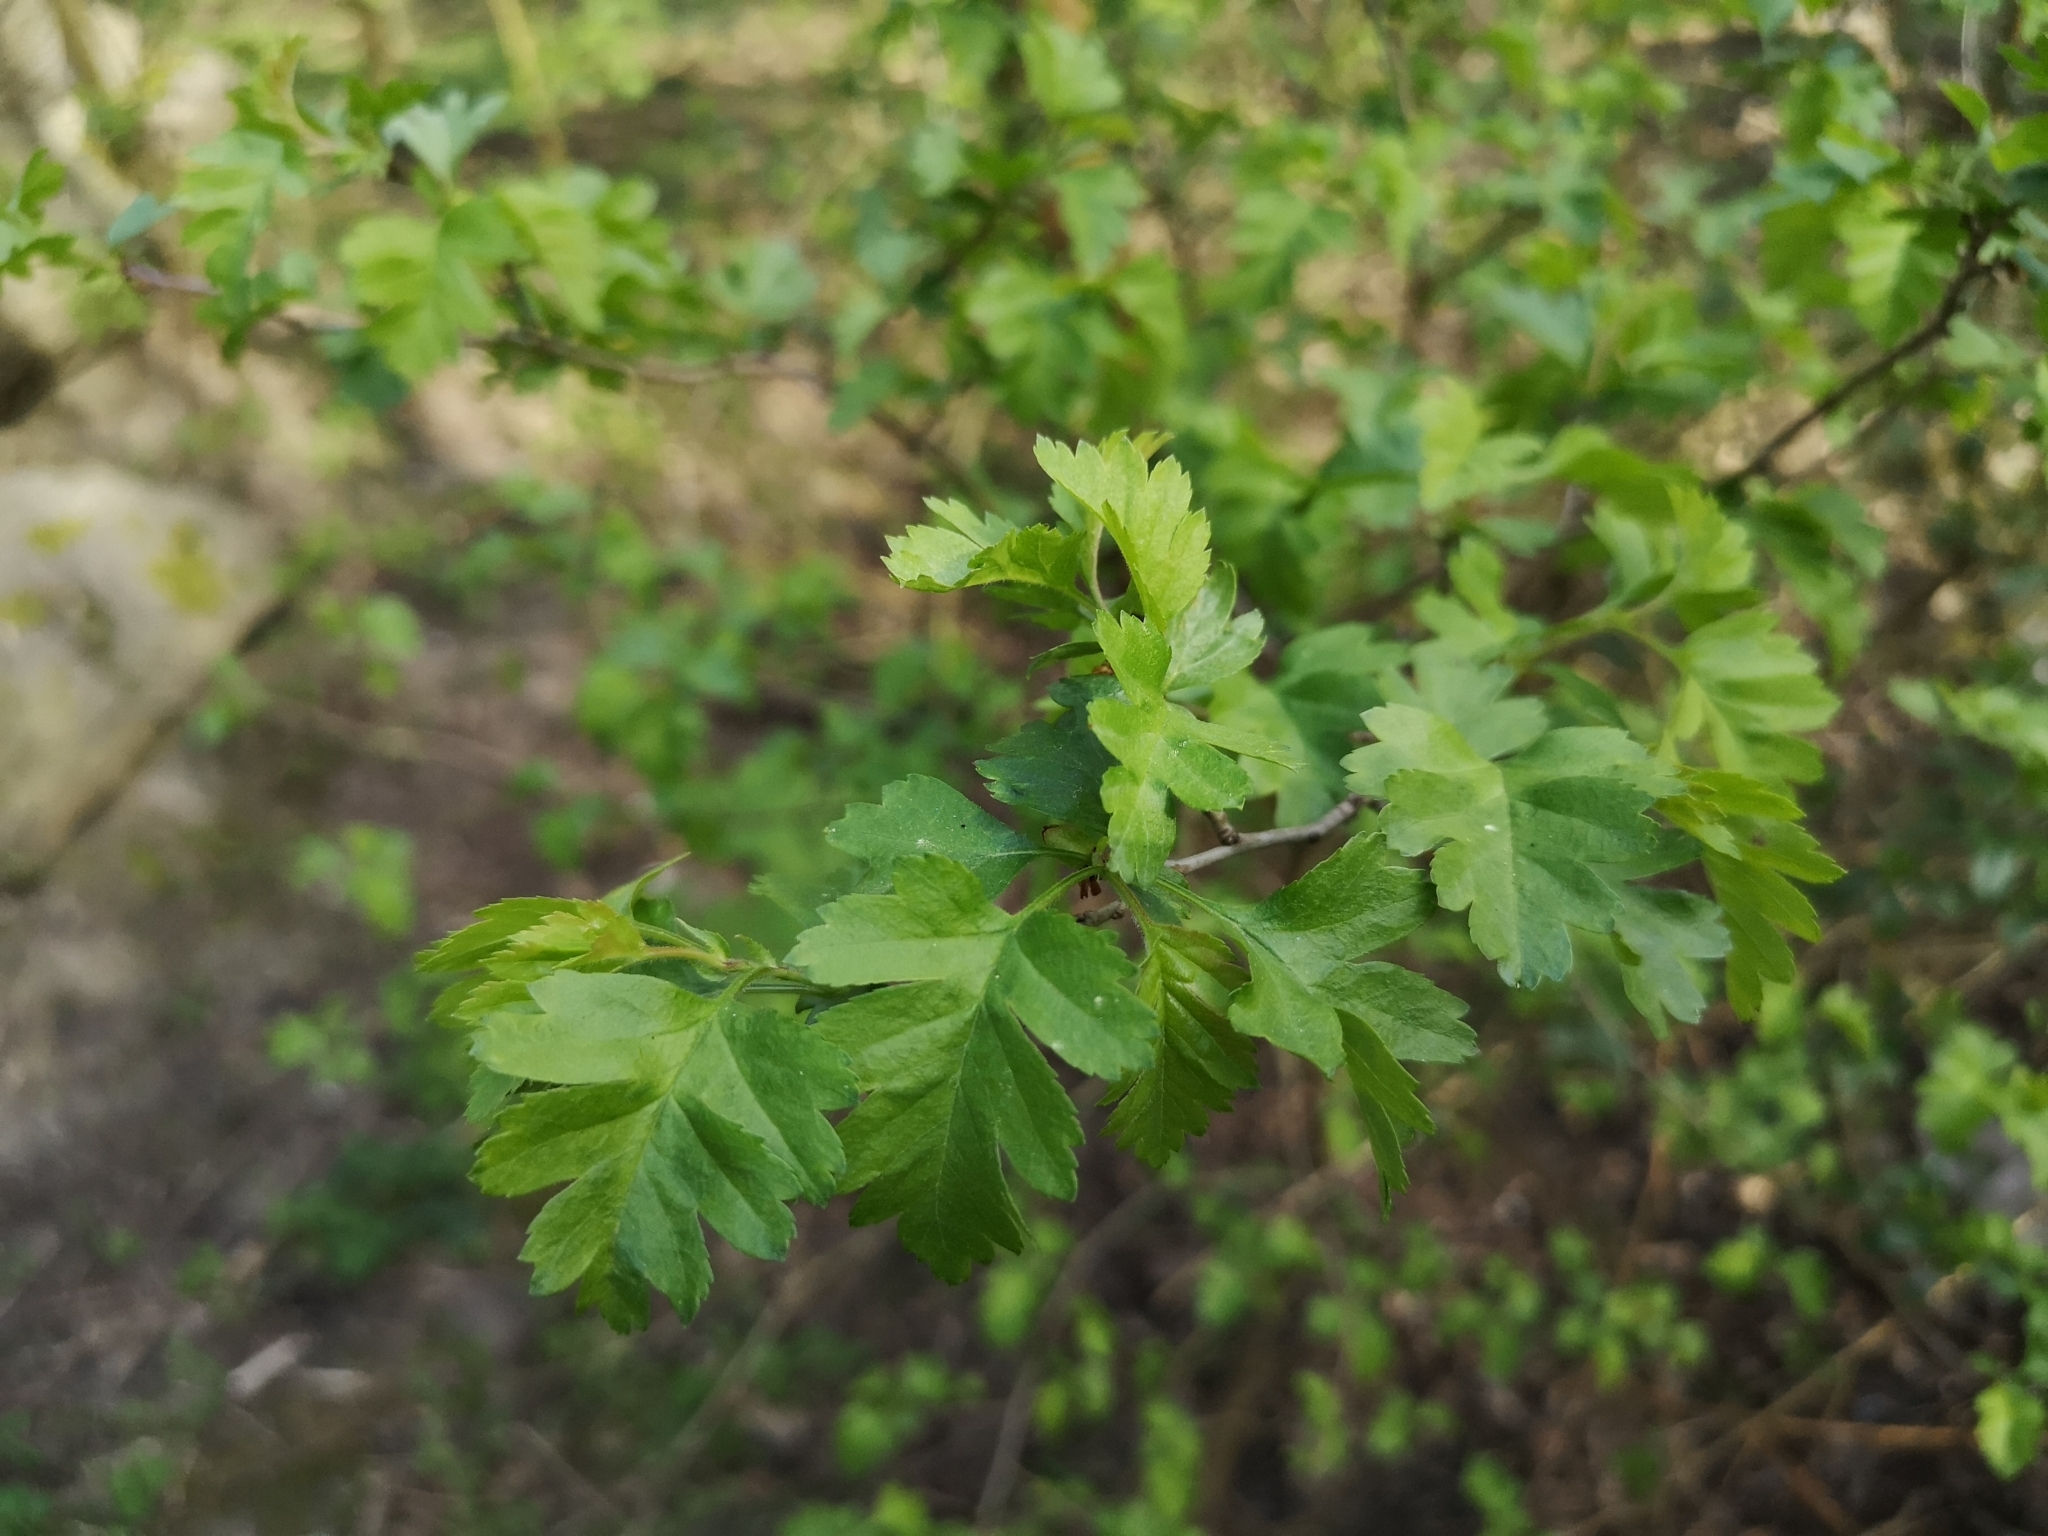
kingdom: Plantae
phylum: Tracheophyta
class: Magnoliopsida
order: Rosales
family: Rosaceae
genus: Crataegus
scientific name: Crataegus monogyna
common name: Hawthorn
